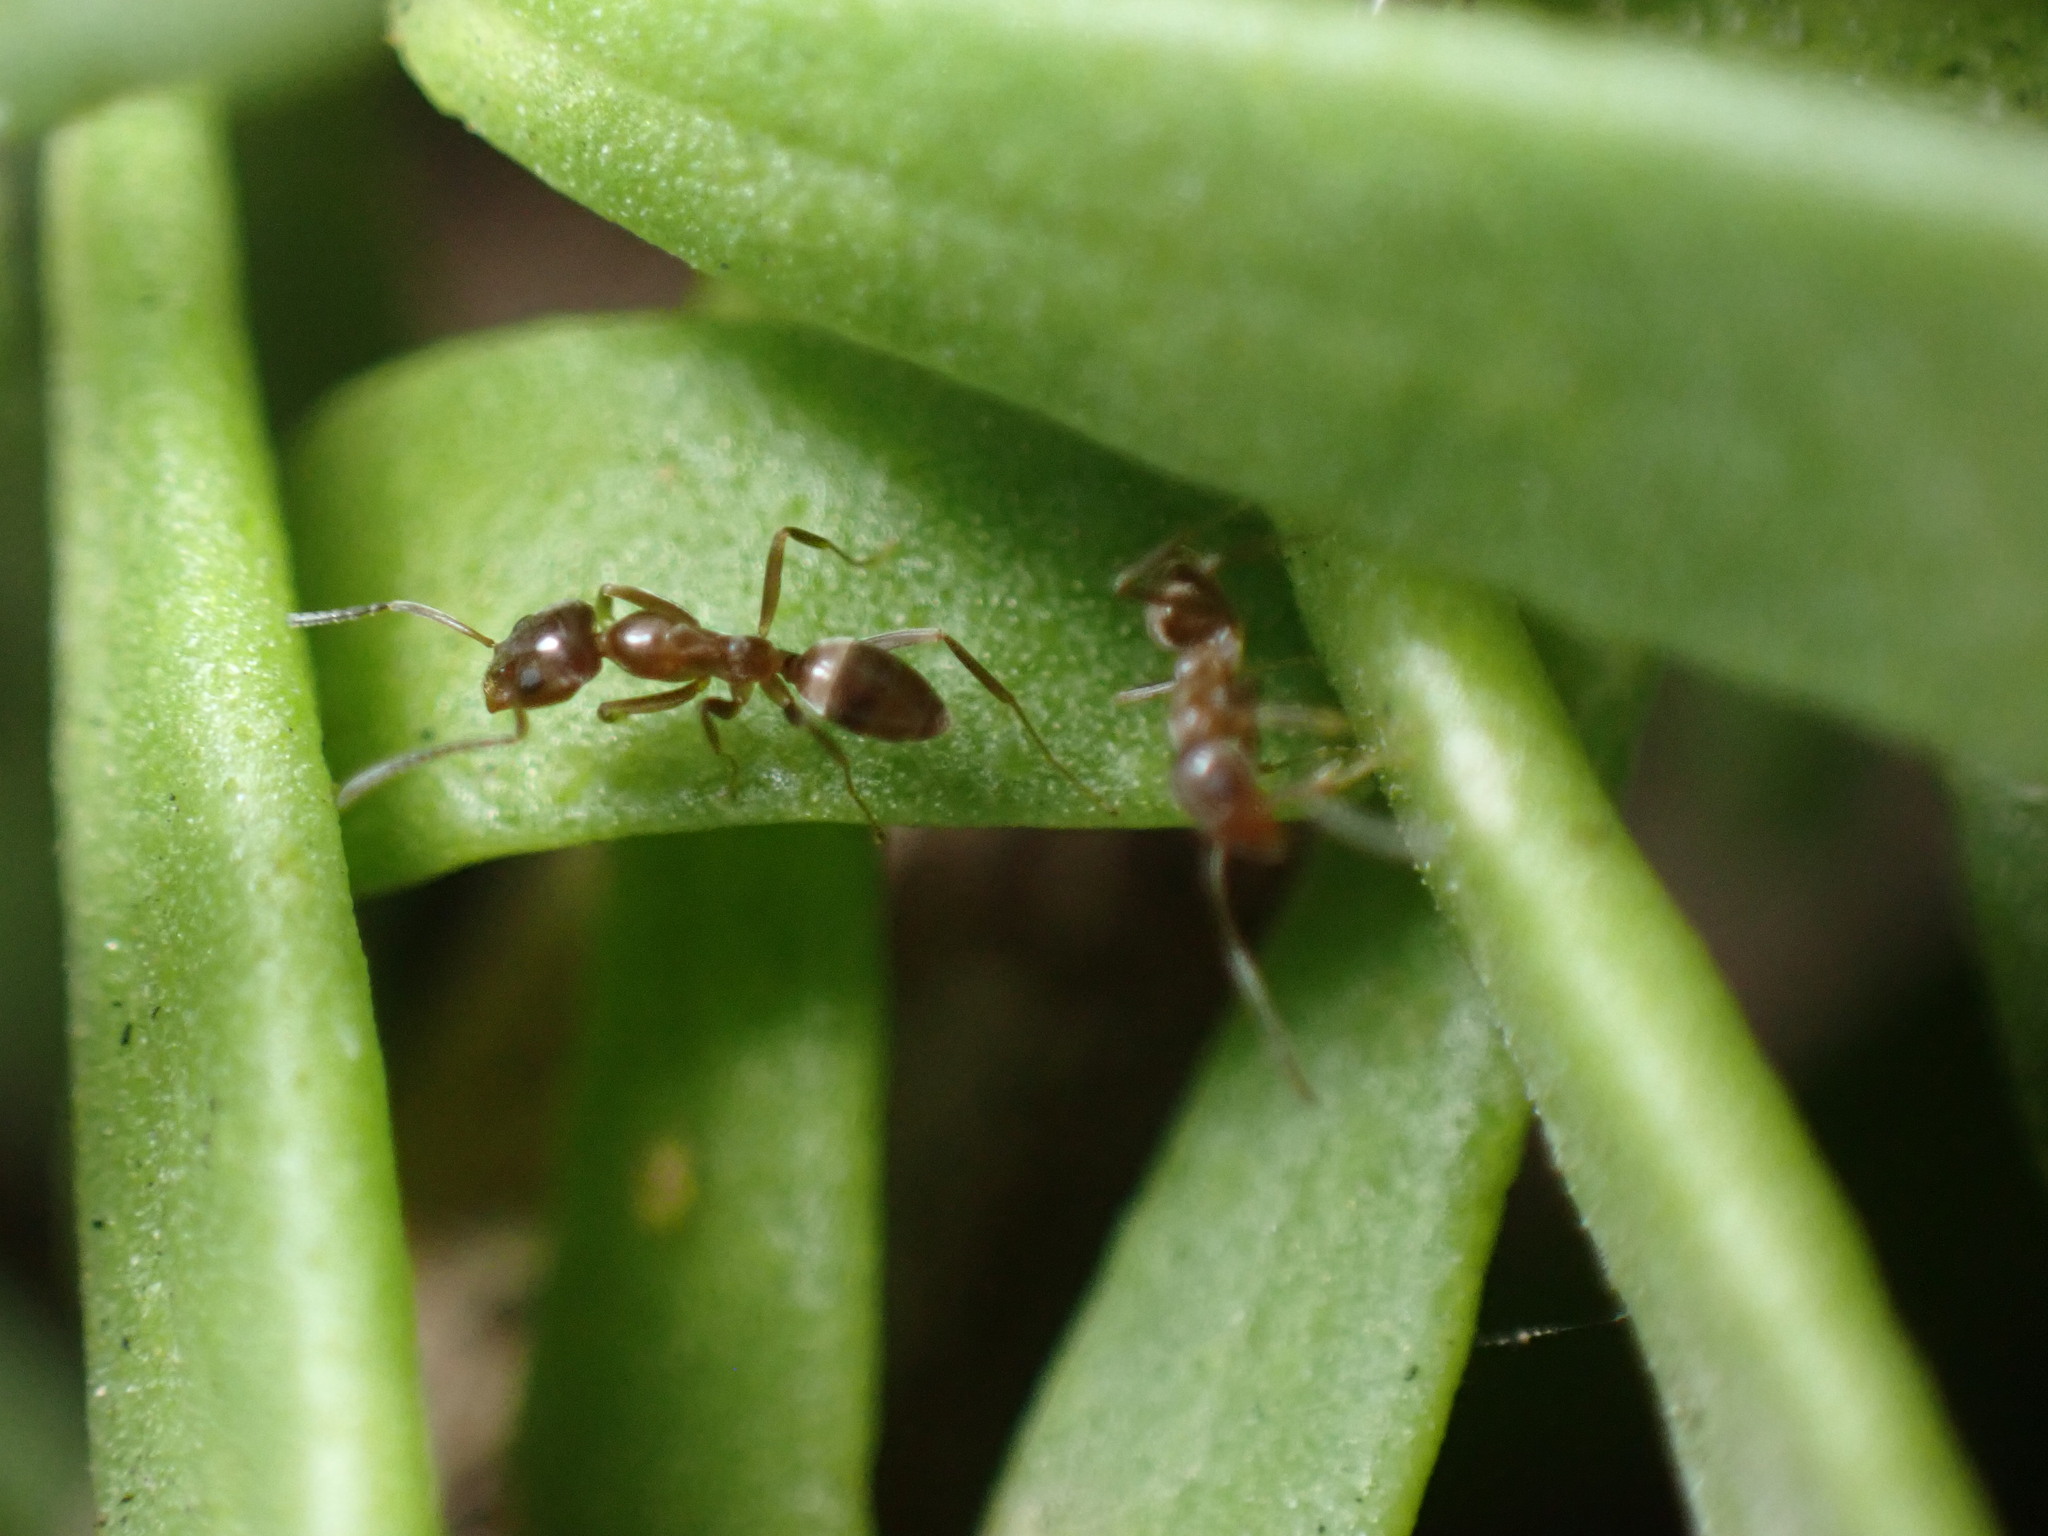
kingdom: Animalia
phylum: Arthropoda
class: Insecta
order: Hymenoptera
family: Formicidae
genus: Linepithema
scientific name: Linepithema humile
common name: Argentine ant
